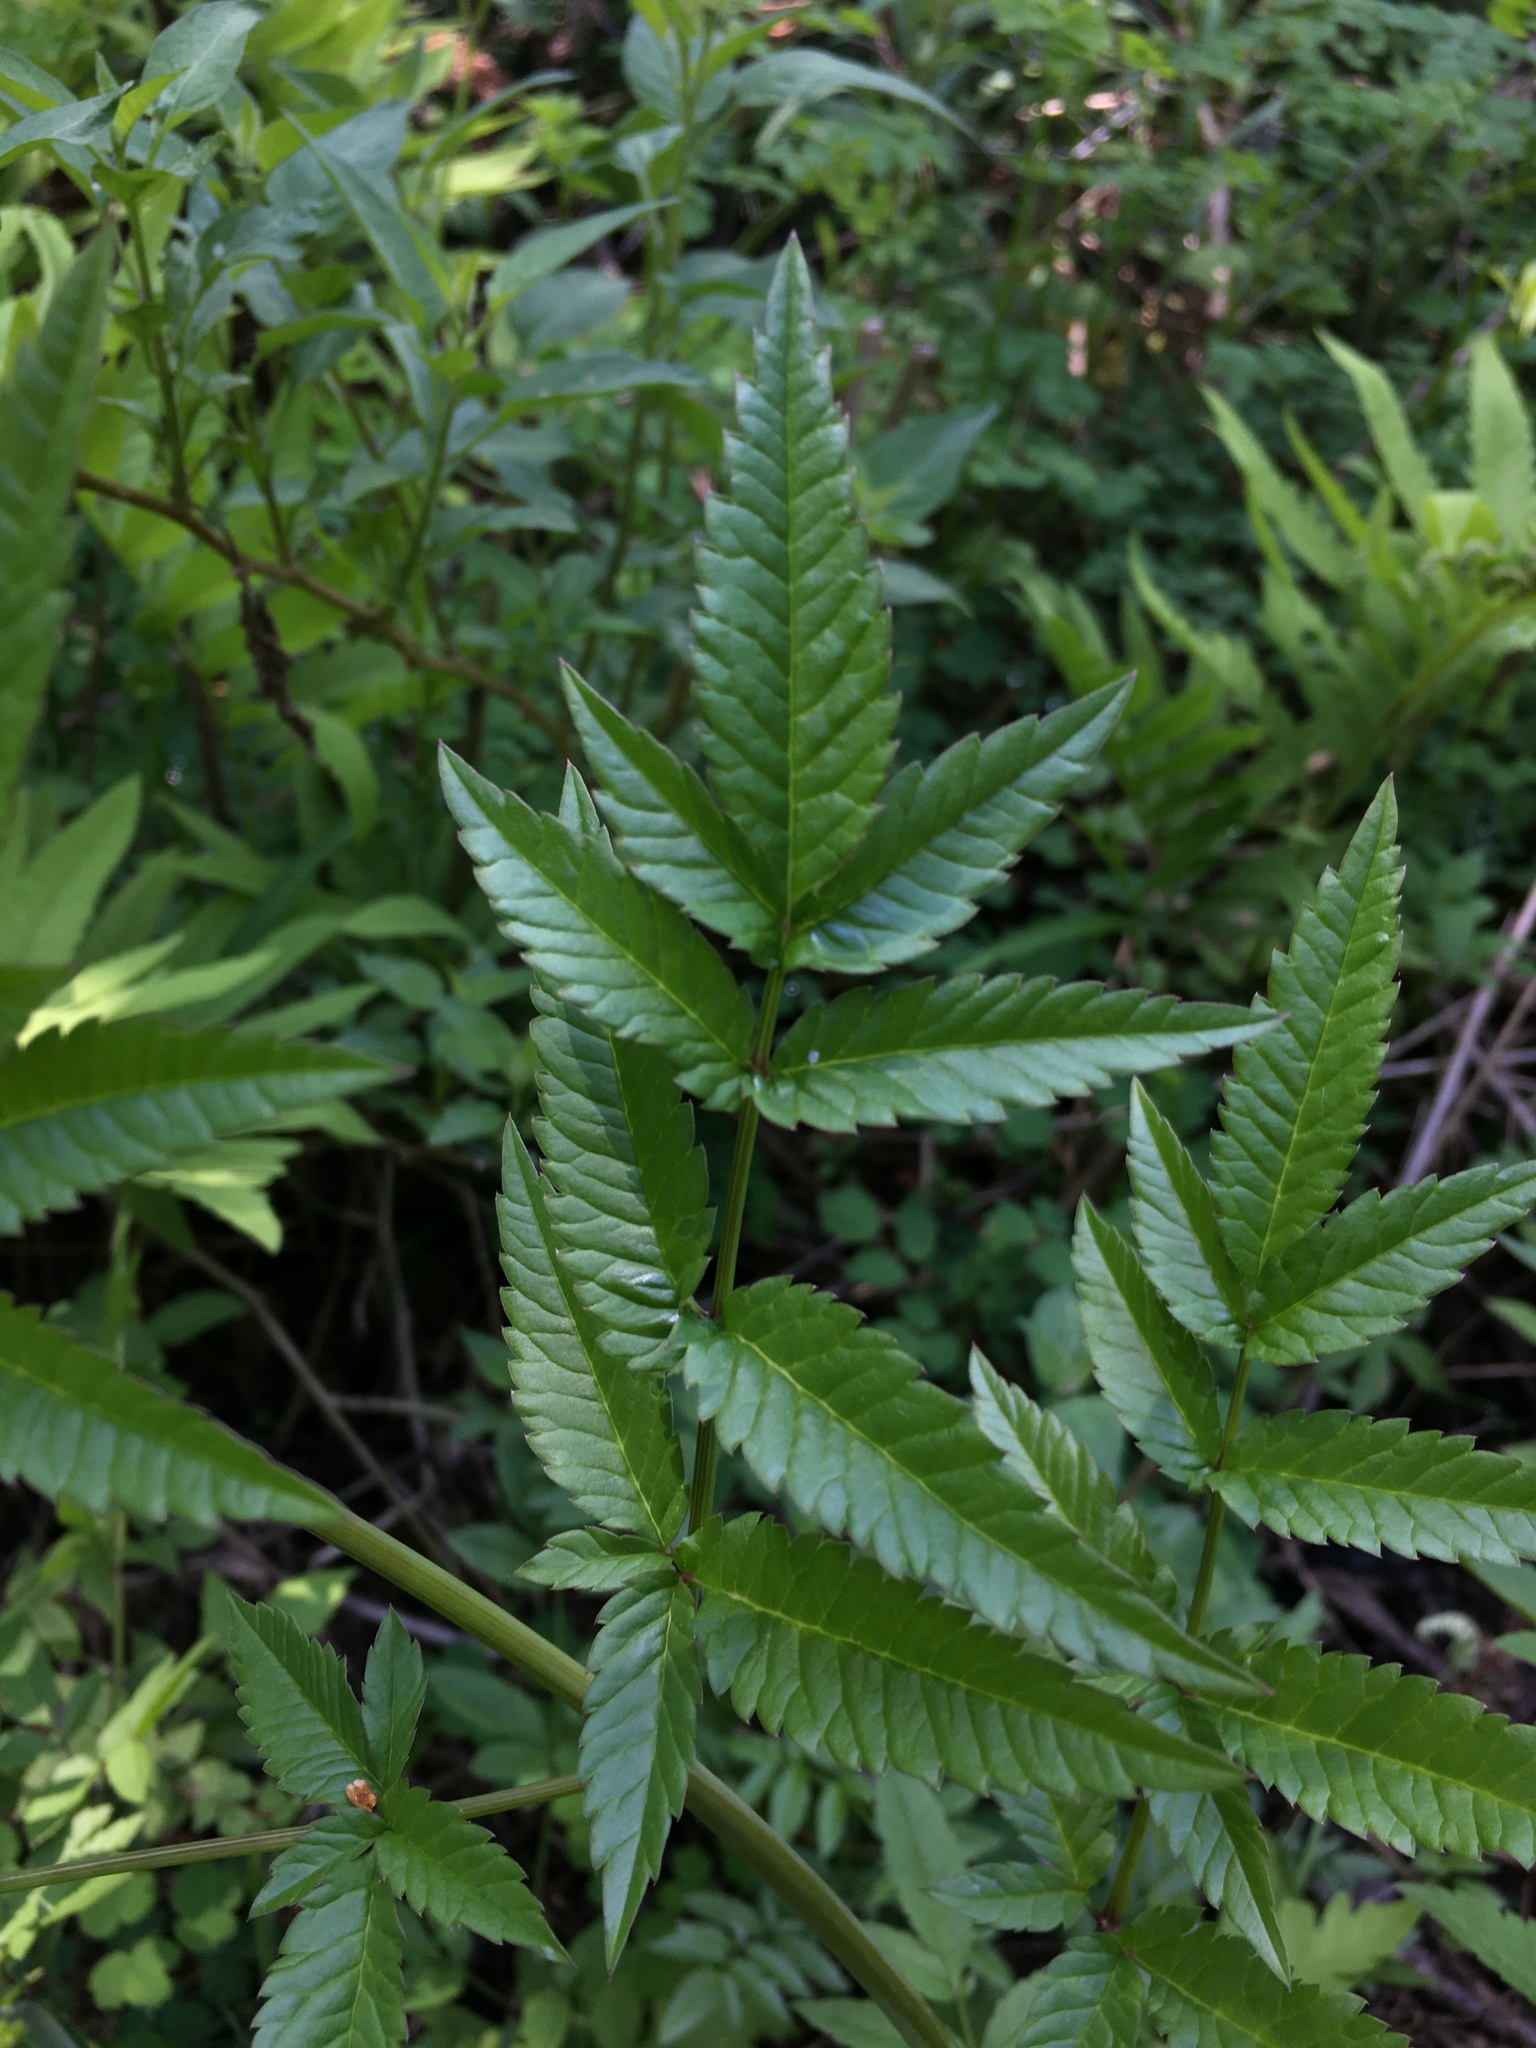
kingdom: Plantae
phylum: Tracheophyta
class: Magnoliopsida
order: Apiales
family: Apiaceae
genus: Cicuta
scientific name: Cicuta maculata
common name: Spotted cowbane
